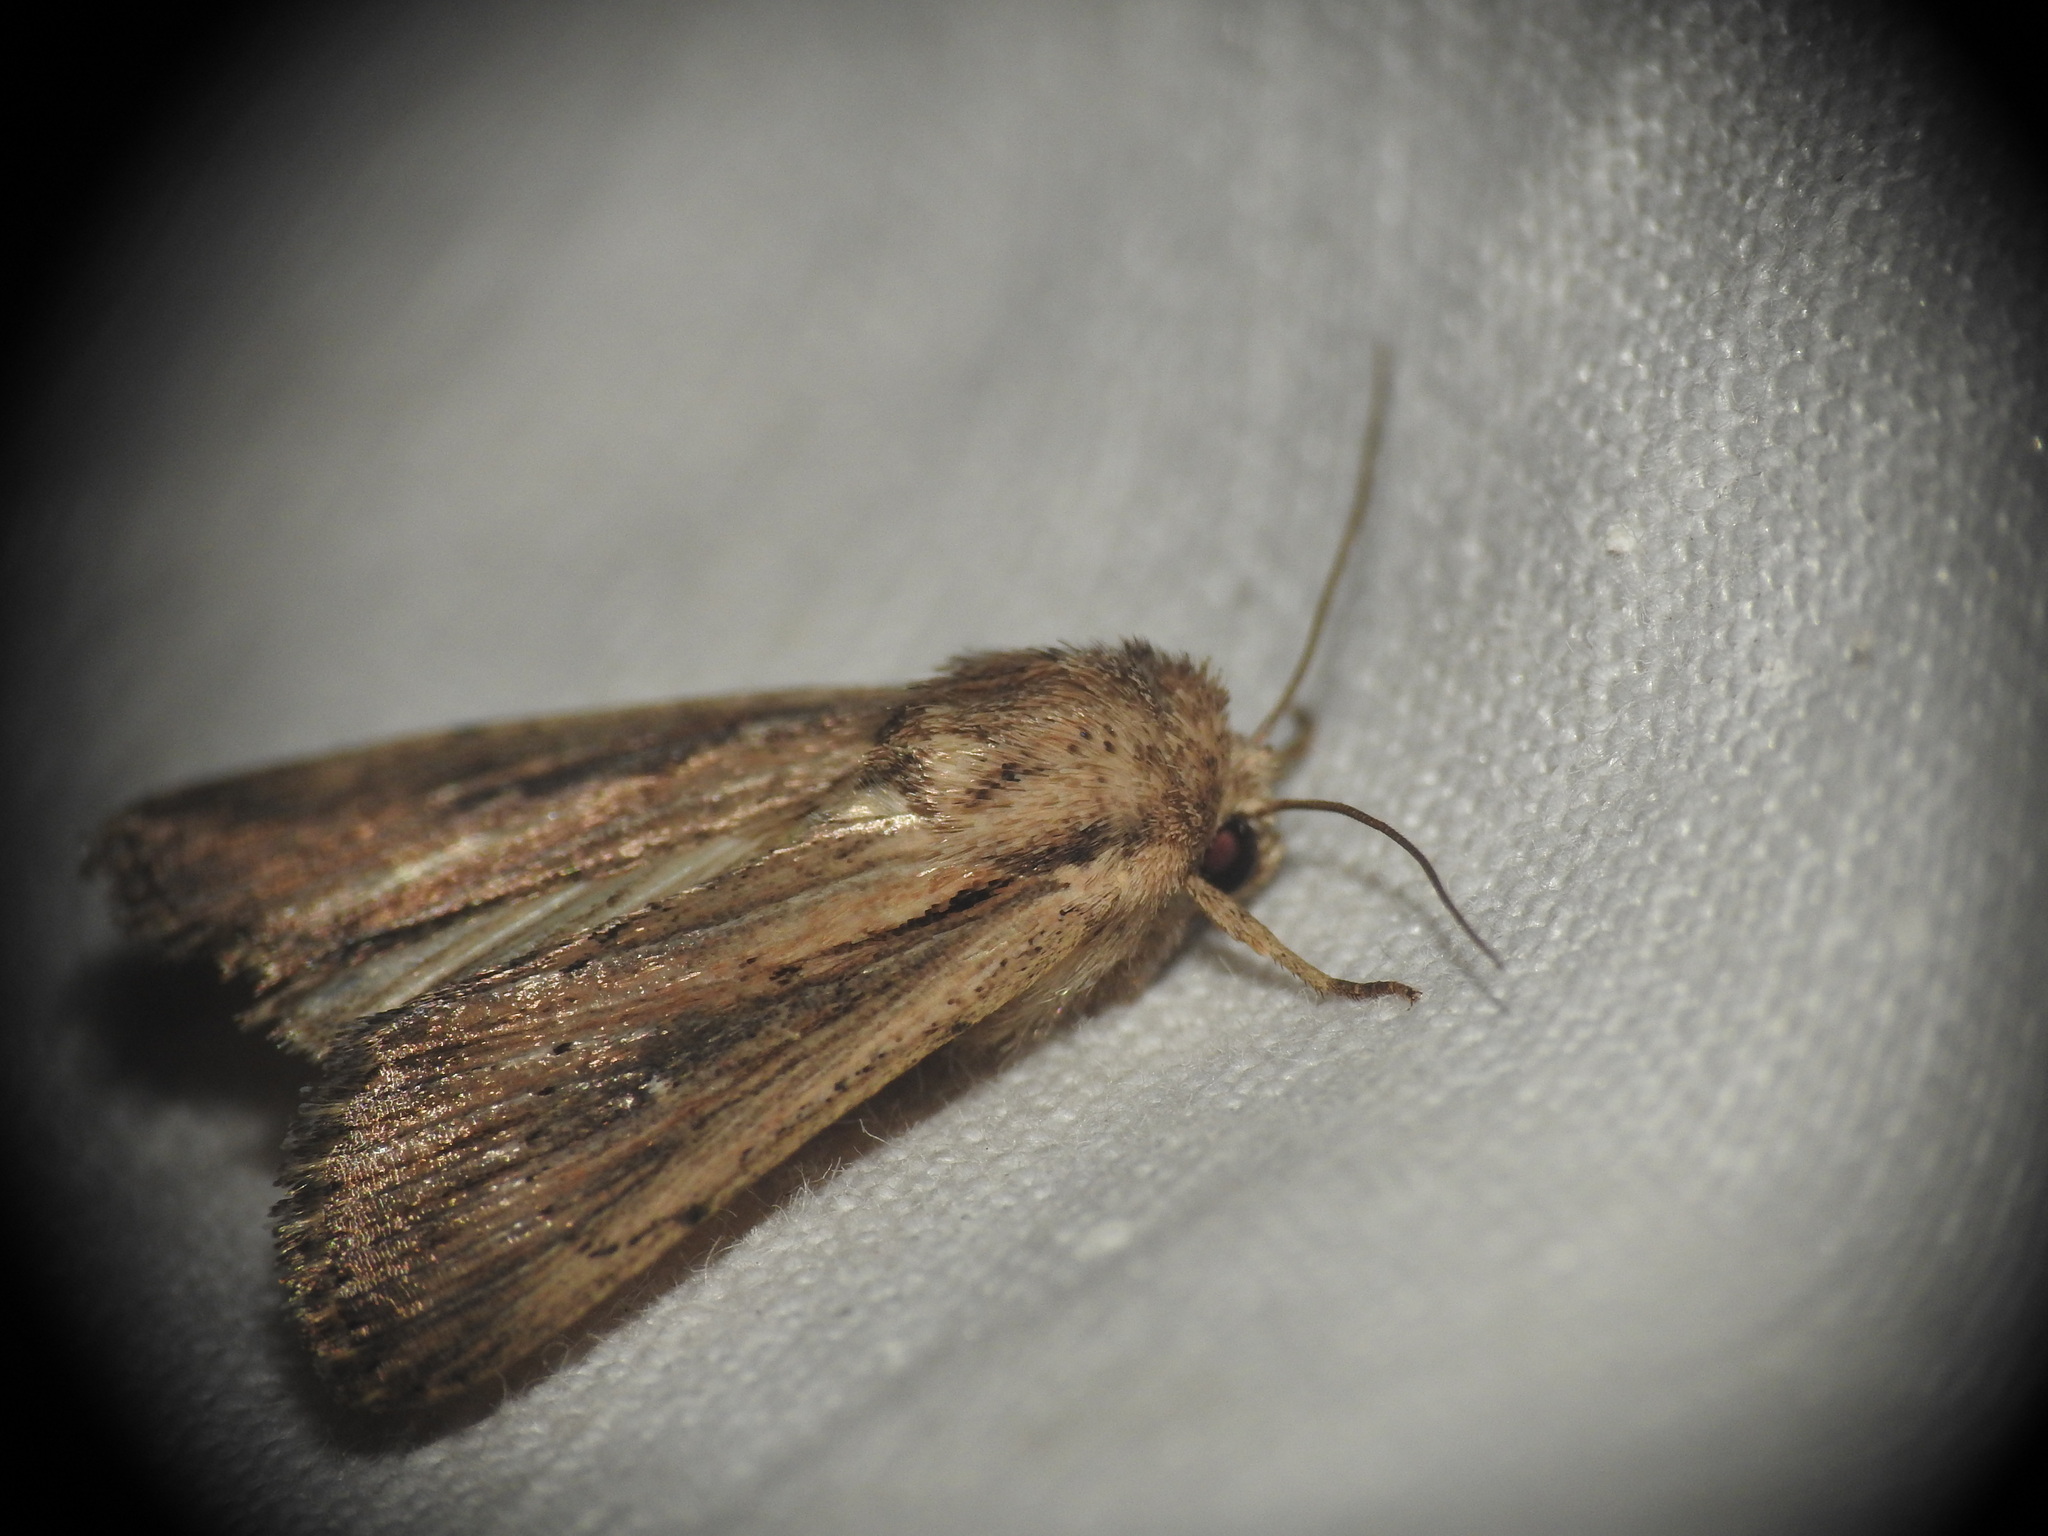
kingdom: Animalia
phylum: Arthropoda
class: Insecta
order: Lepidoptera
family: Noctuidae
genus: Leucania
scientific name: Leucania putrescens
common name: Devonshire wainscot
